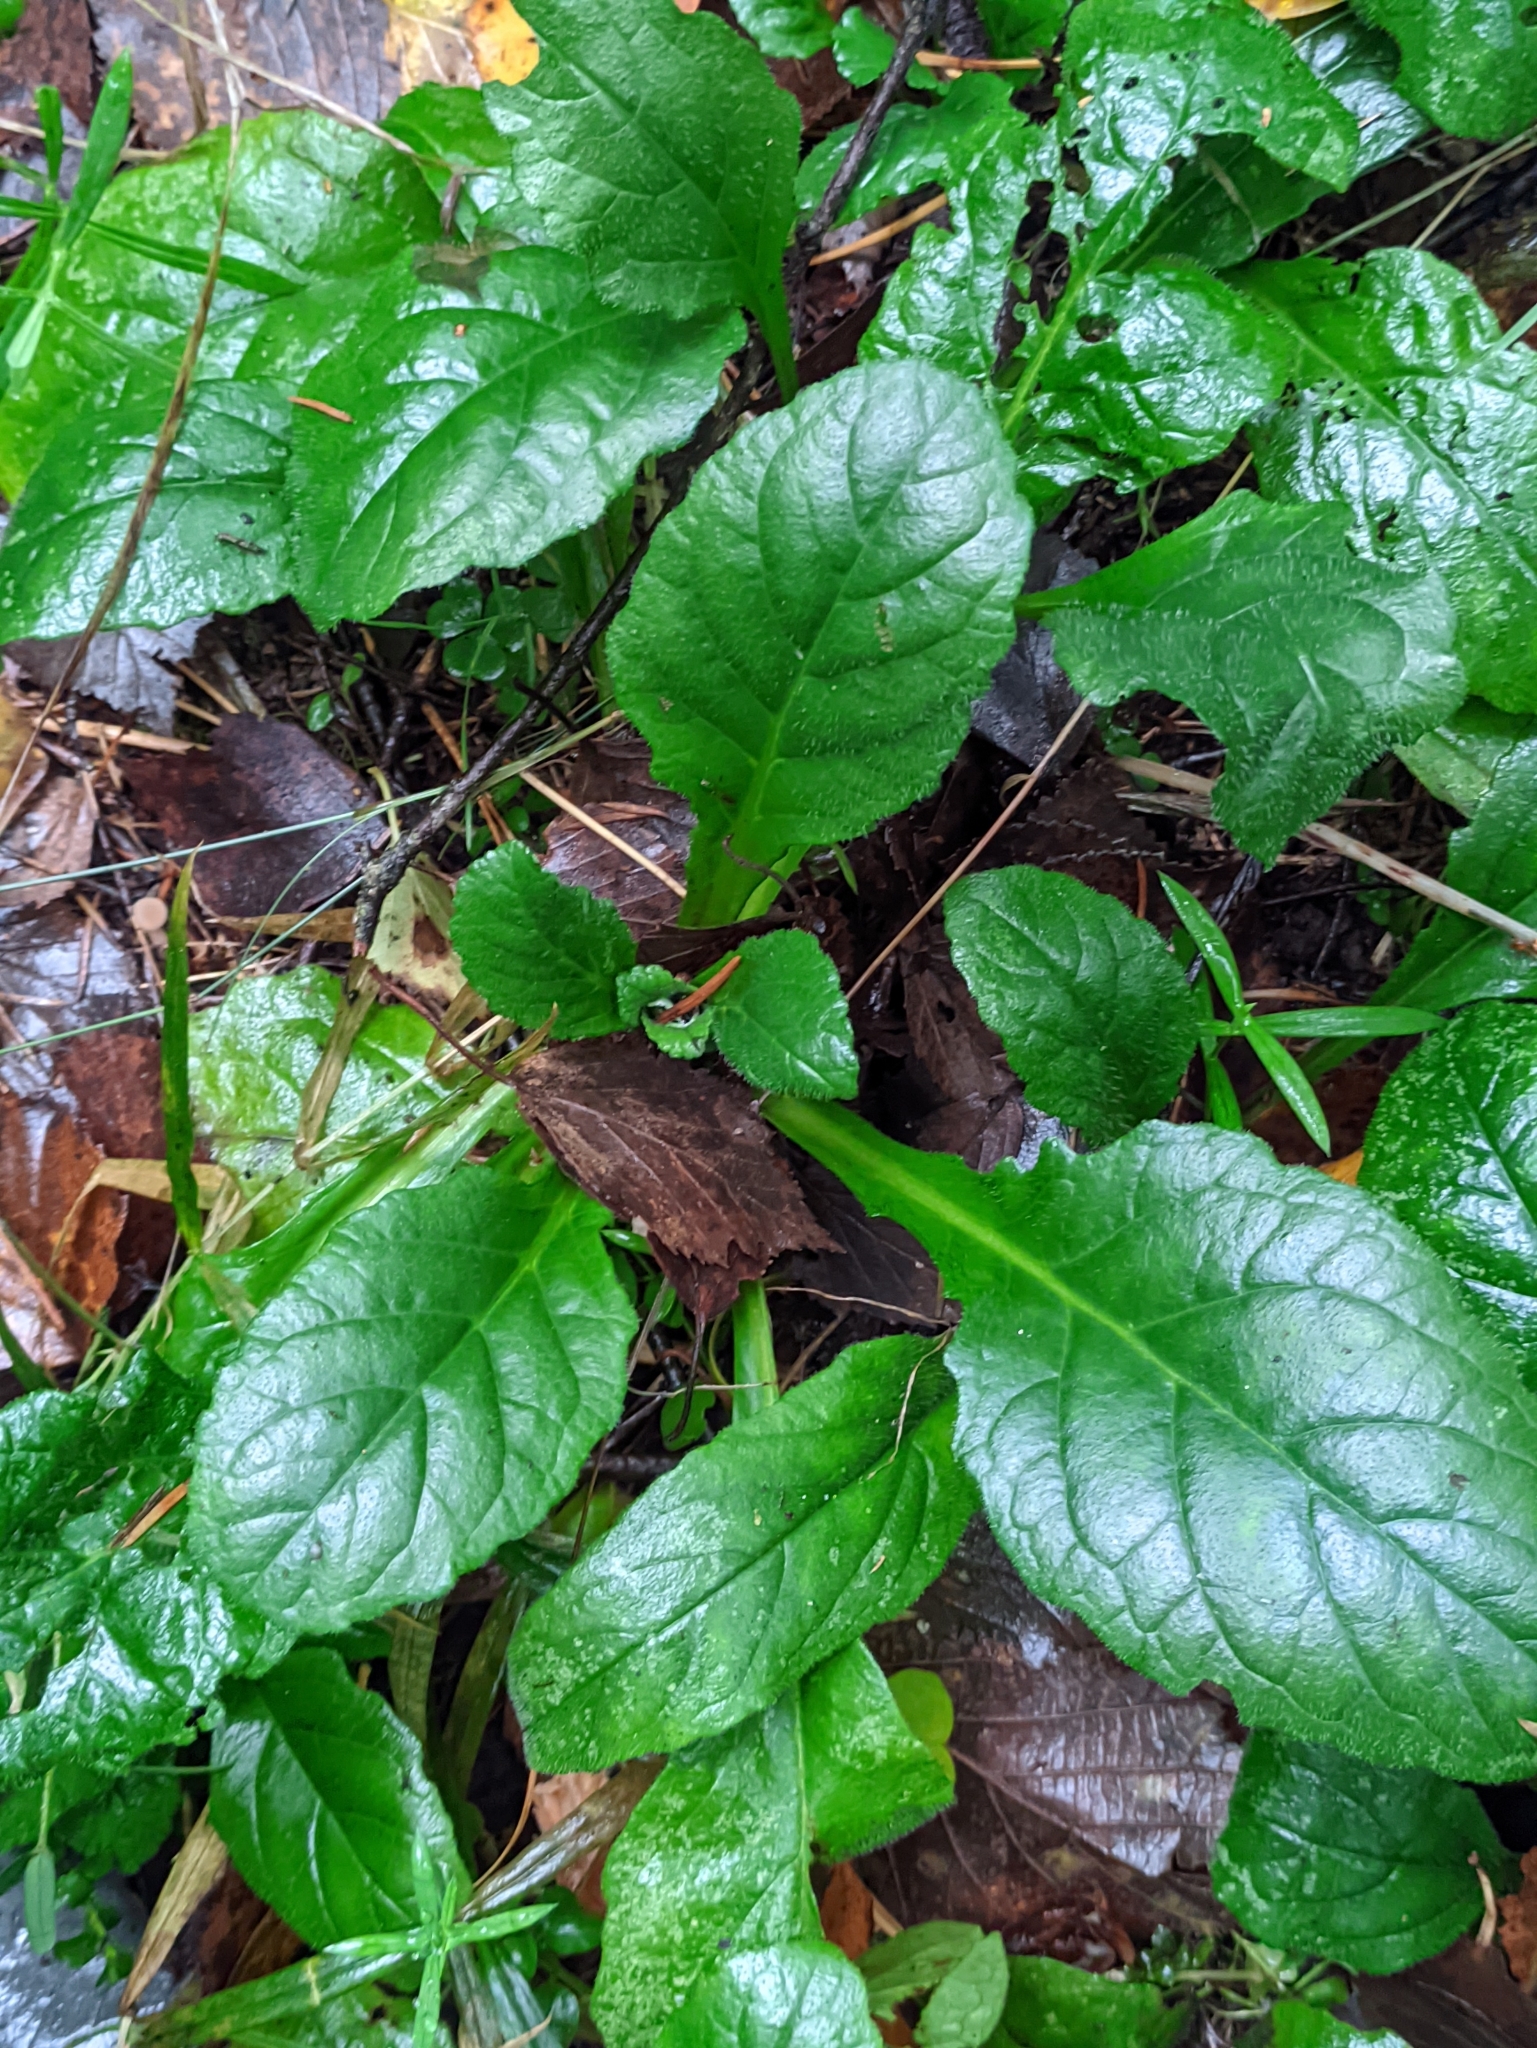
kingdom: Plantae
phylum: Tracheophyta
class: Magnoliopsida
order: Lamiales
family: Lamiaceae
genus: Ajuga
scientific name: Ajuga reptans
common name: Bugle
